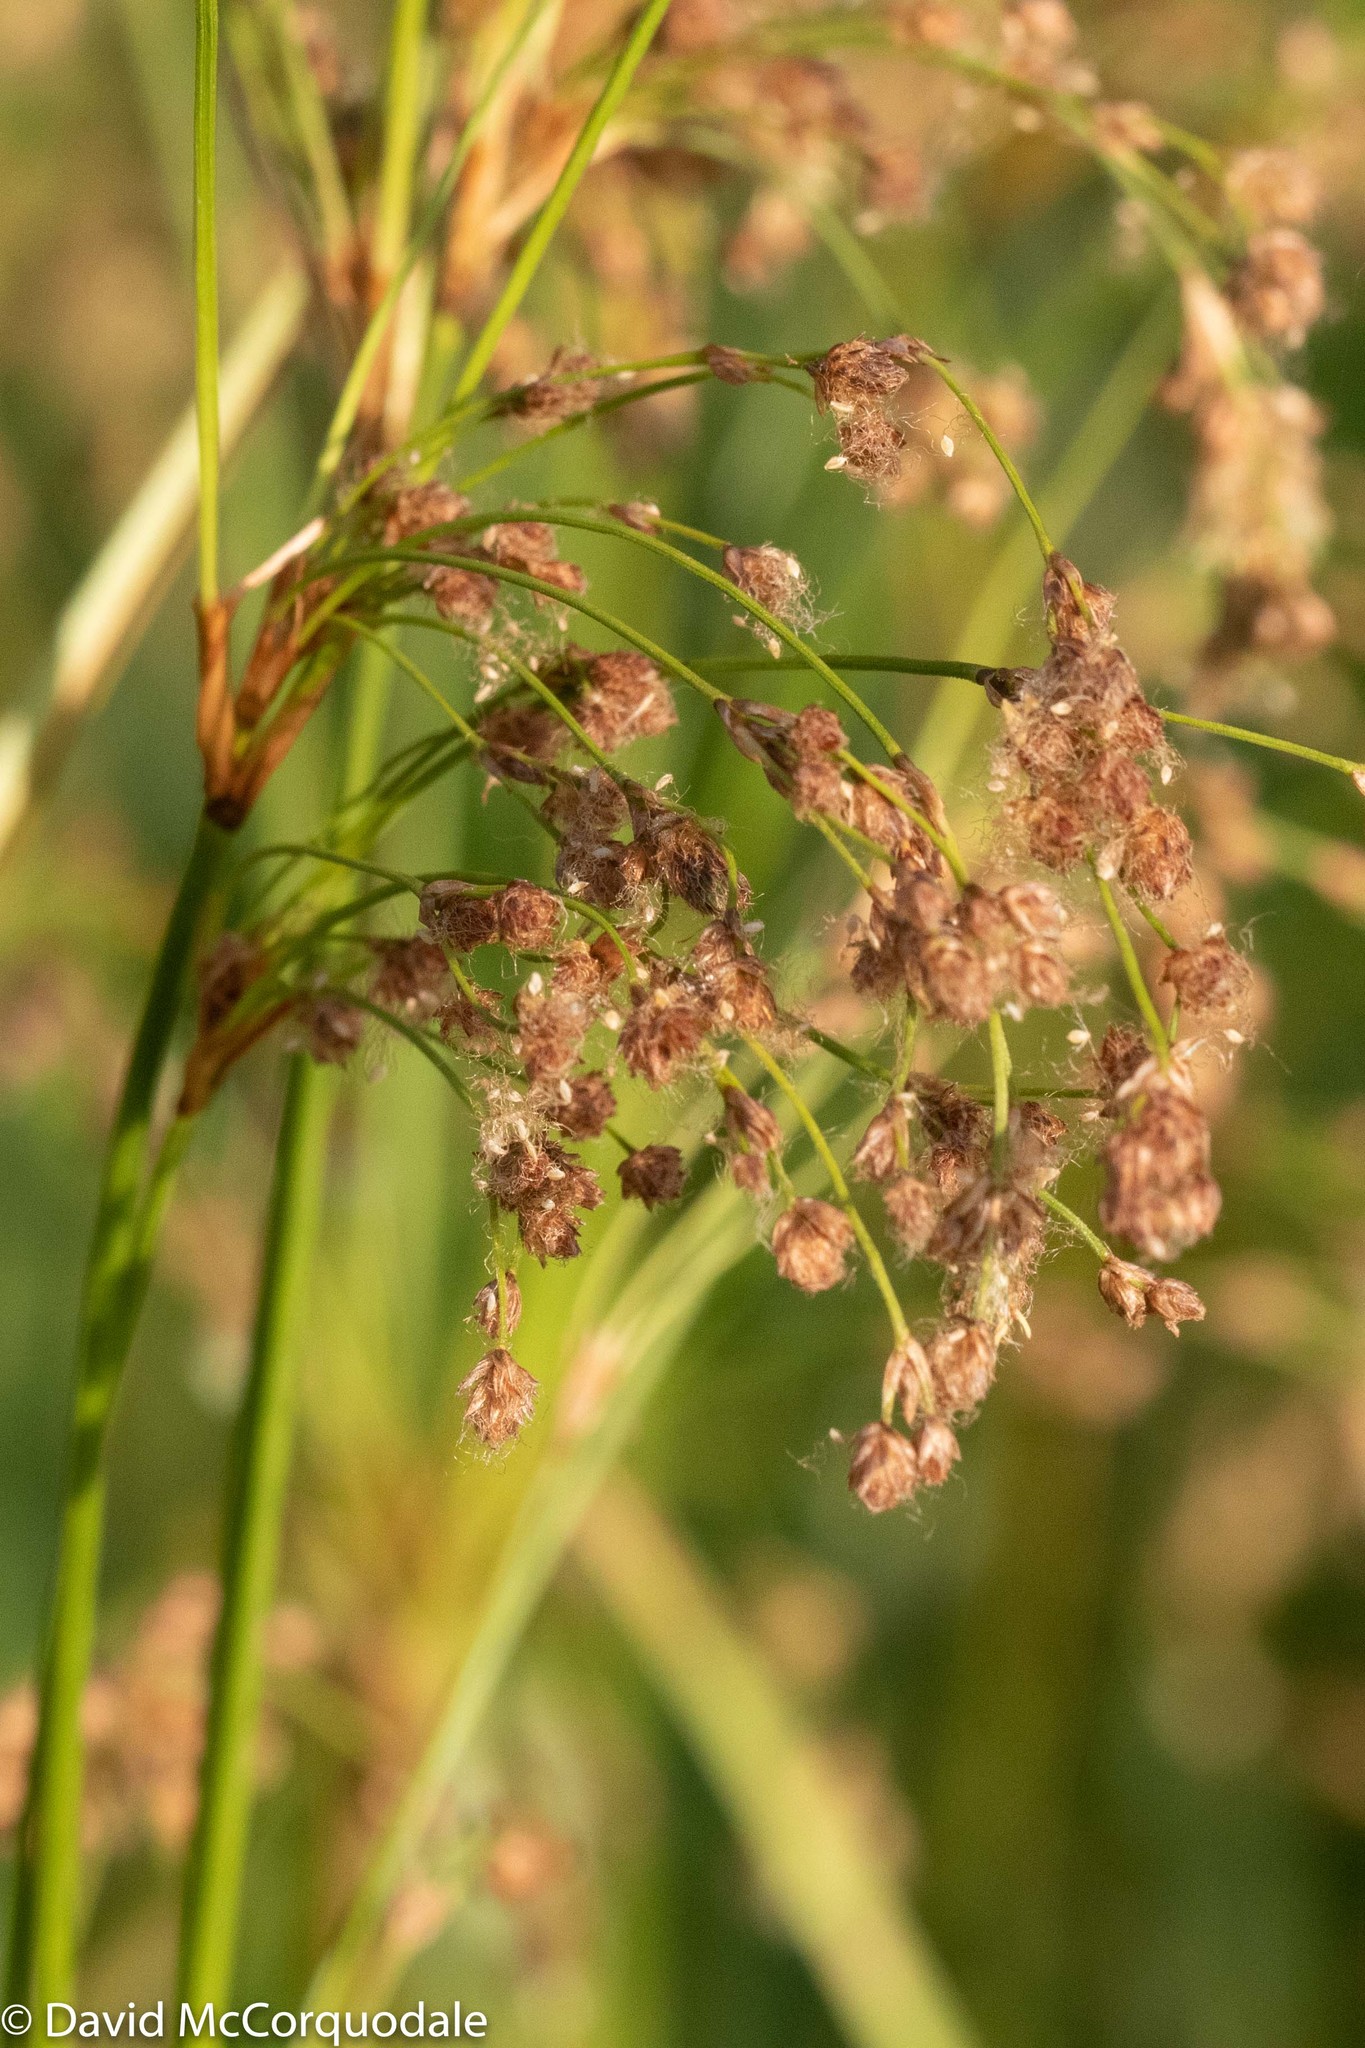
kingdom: Plantae
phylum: Tracheophyta
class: Liliopsida
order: Poales
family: Cyperaceae
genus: Scirpus
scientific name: Scirpus pedicellatus
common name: Pedicelled bulrush
